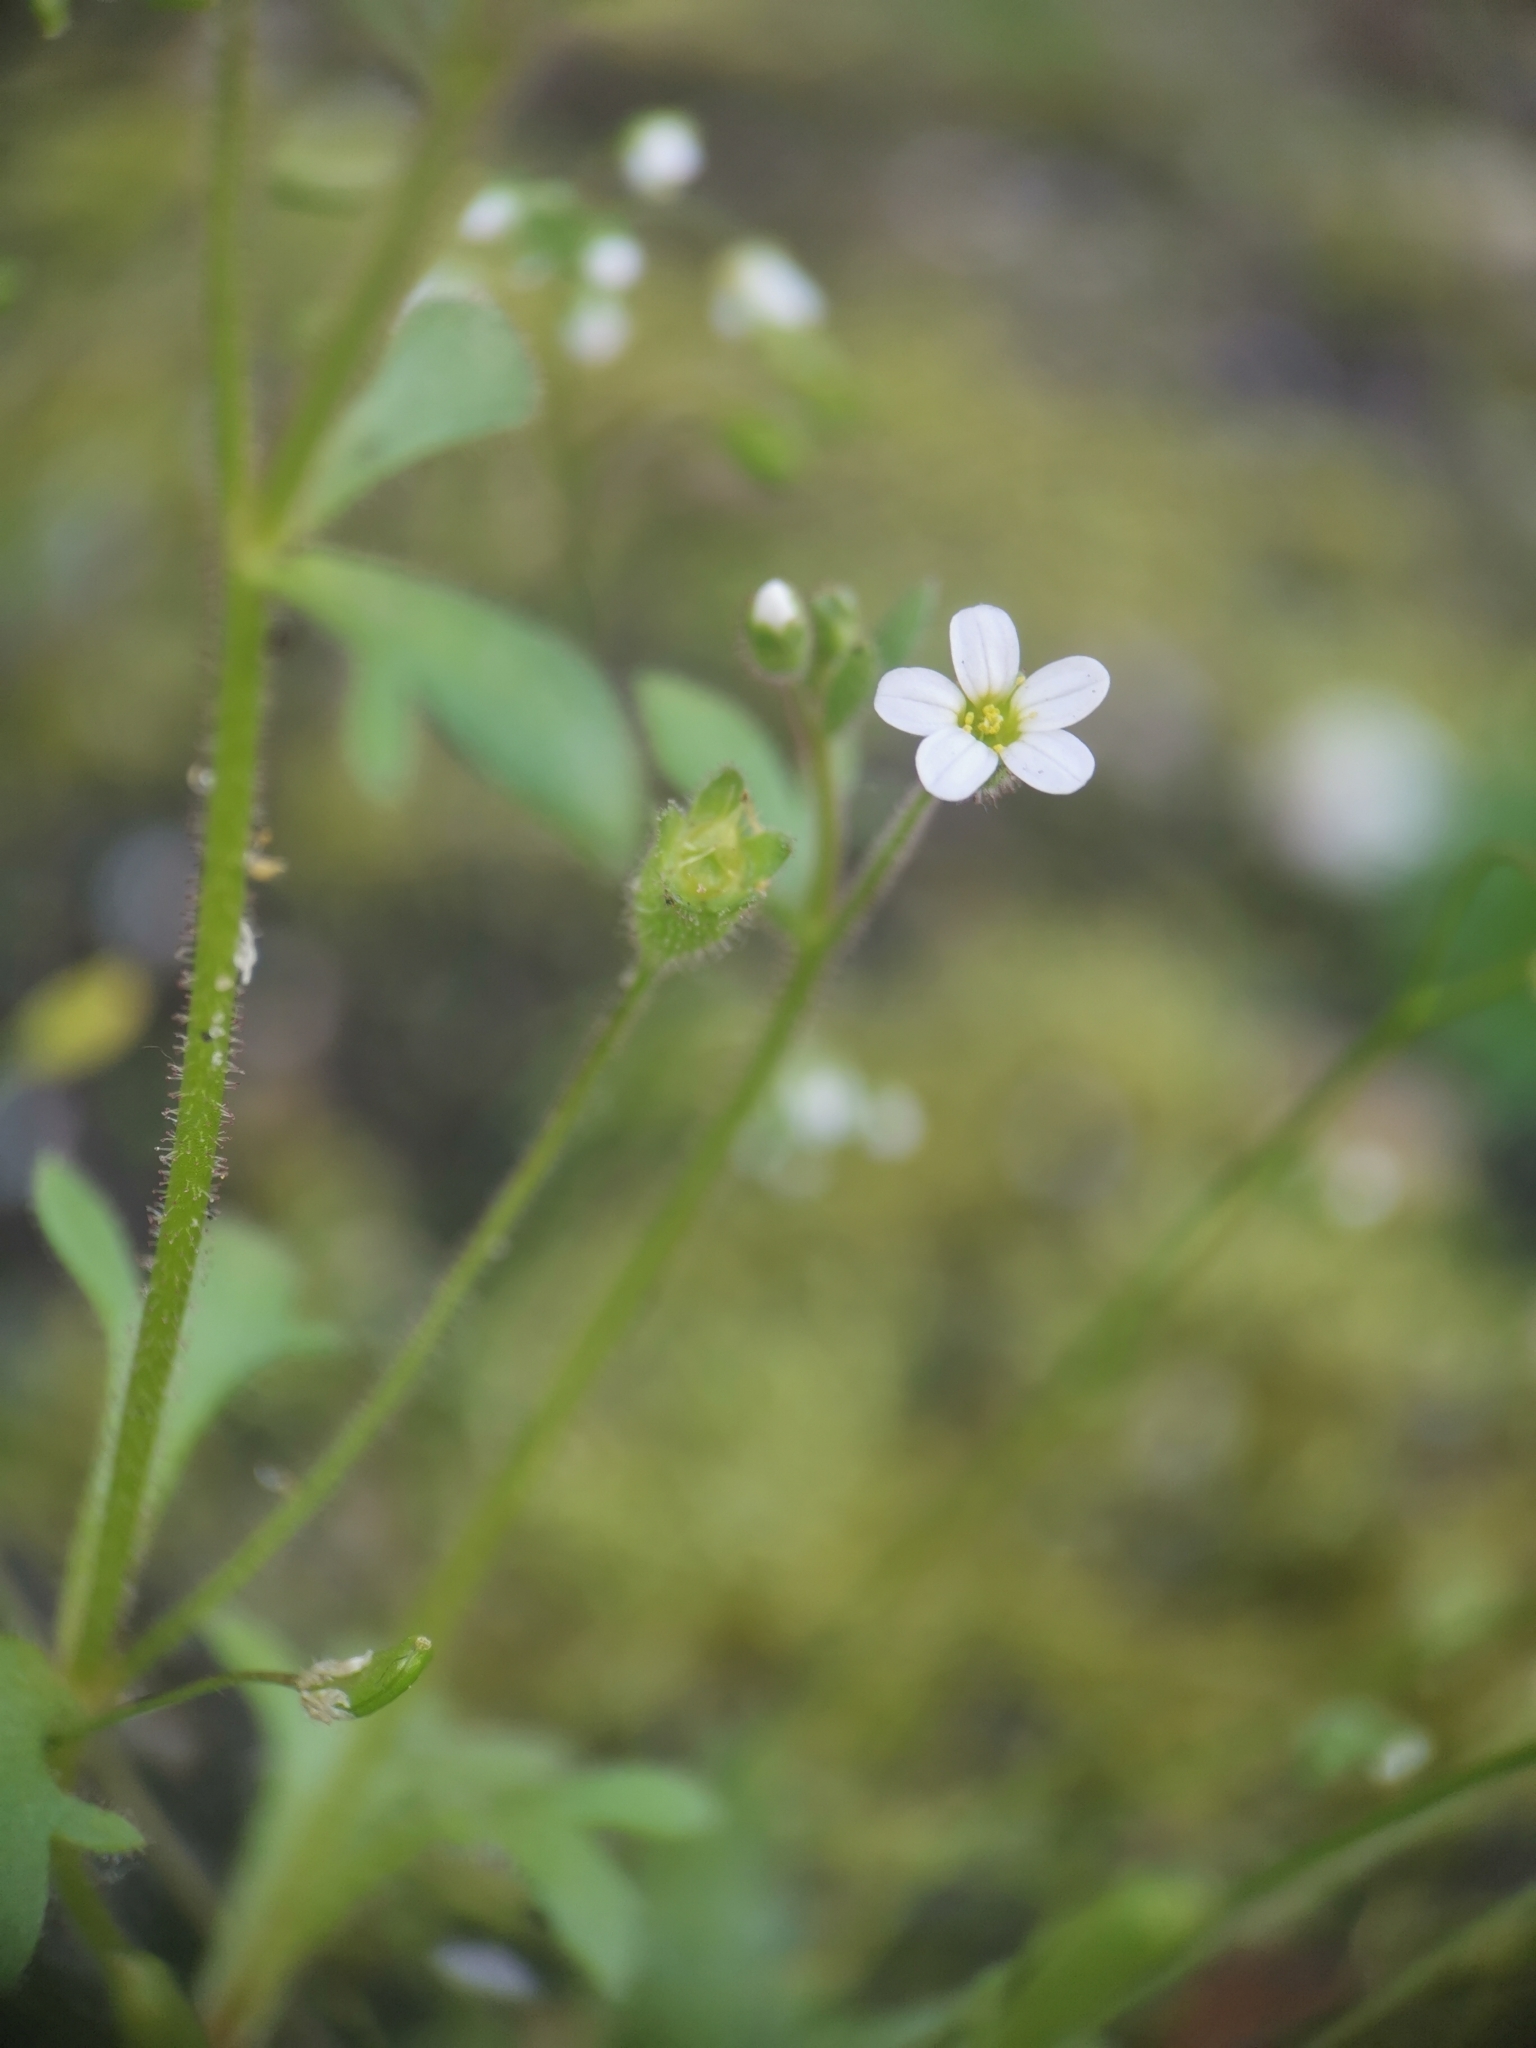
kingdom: Plantae
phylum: Tracheophyta
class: Magnoliopsida
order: Saxifragales
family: Saxifragaceae
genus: Saxifraga
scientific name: Saxifraga tridactylites
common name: Rue-leaved saxifrage
